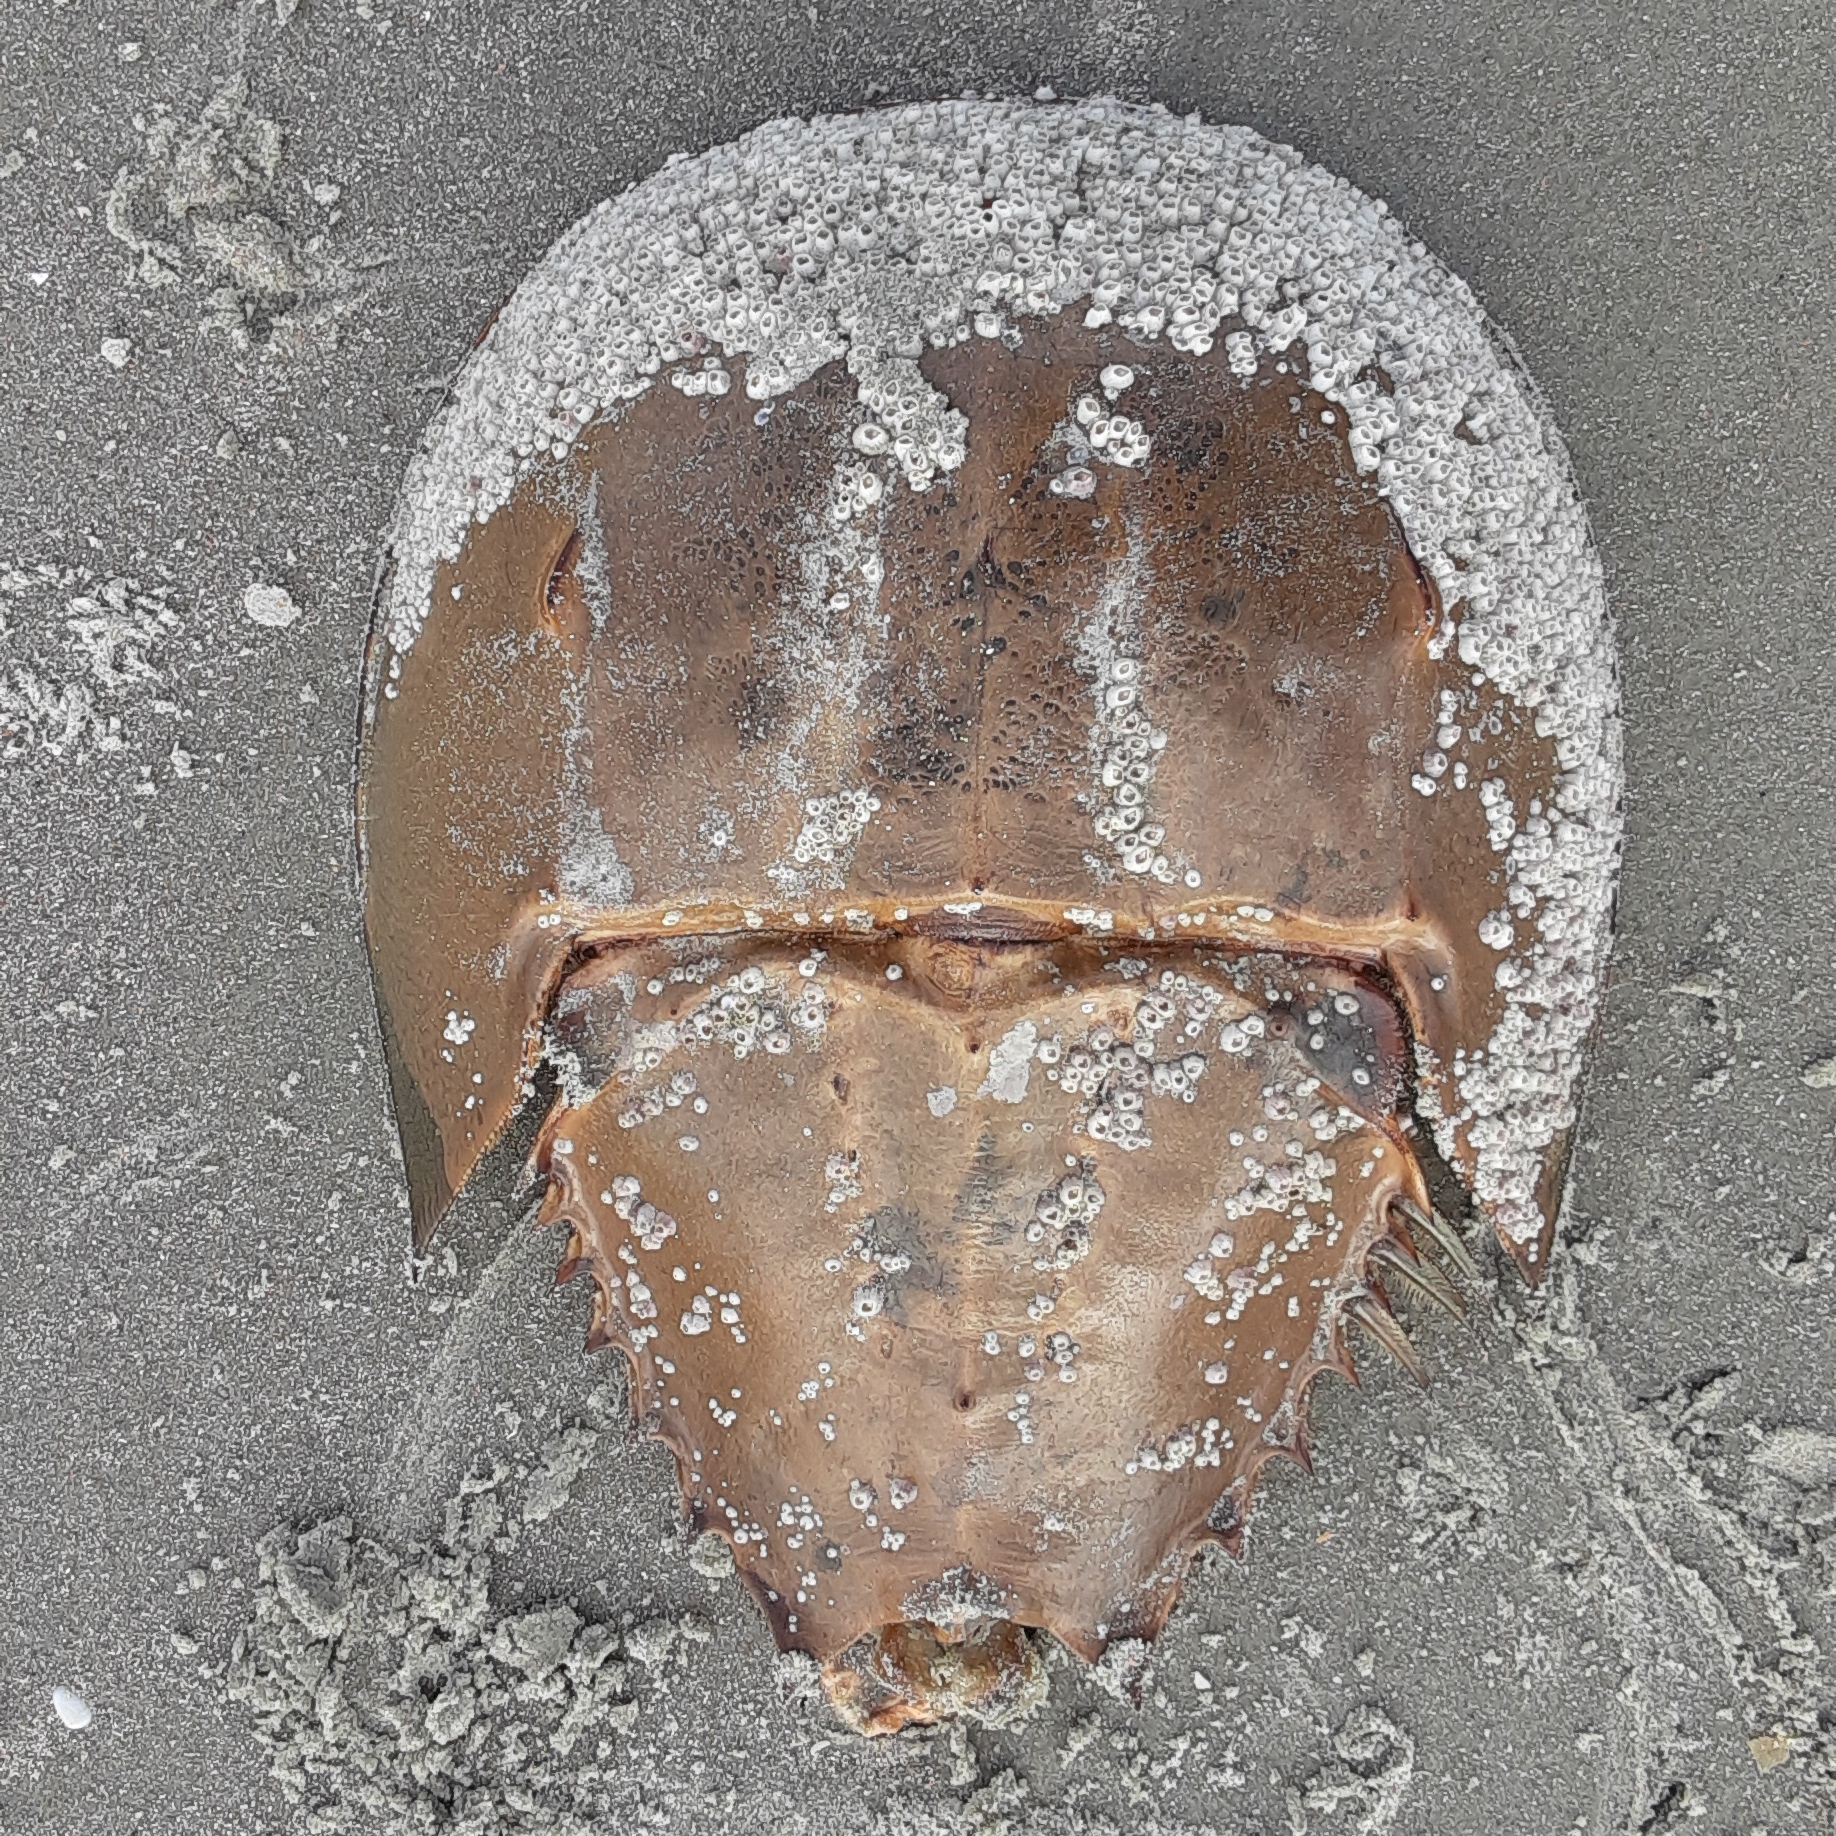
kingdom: Animalia
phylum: Arthropoda
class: Merostomata
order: Xiphosurida
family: Limulidae
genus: Limulus
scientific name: Limulus polyphemus
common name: Horseshoe crab
